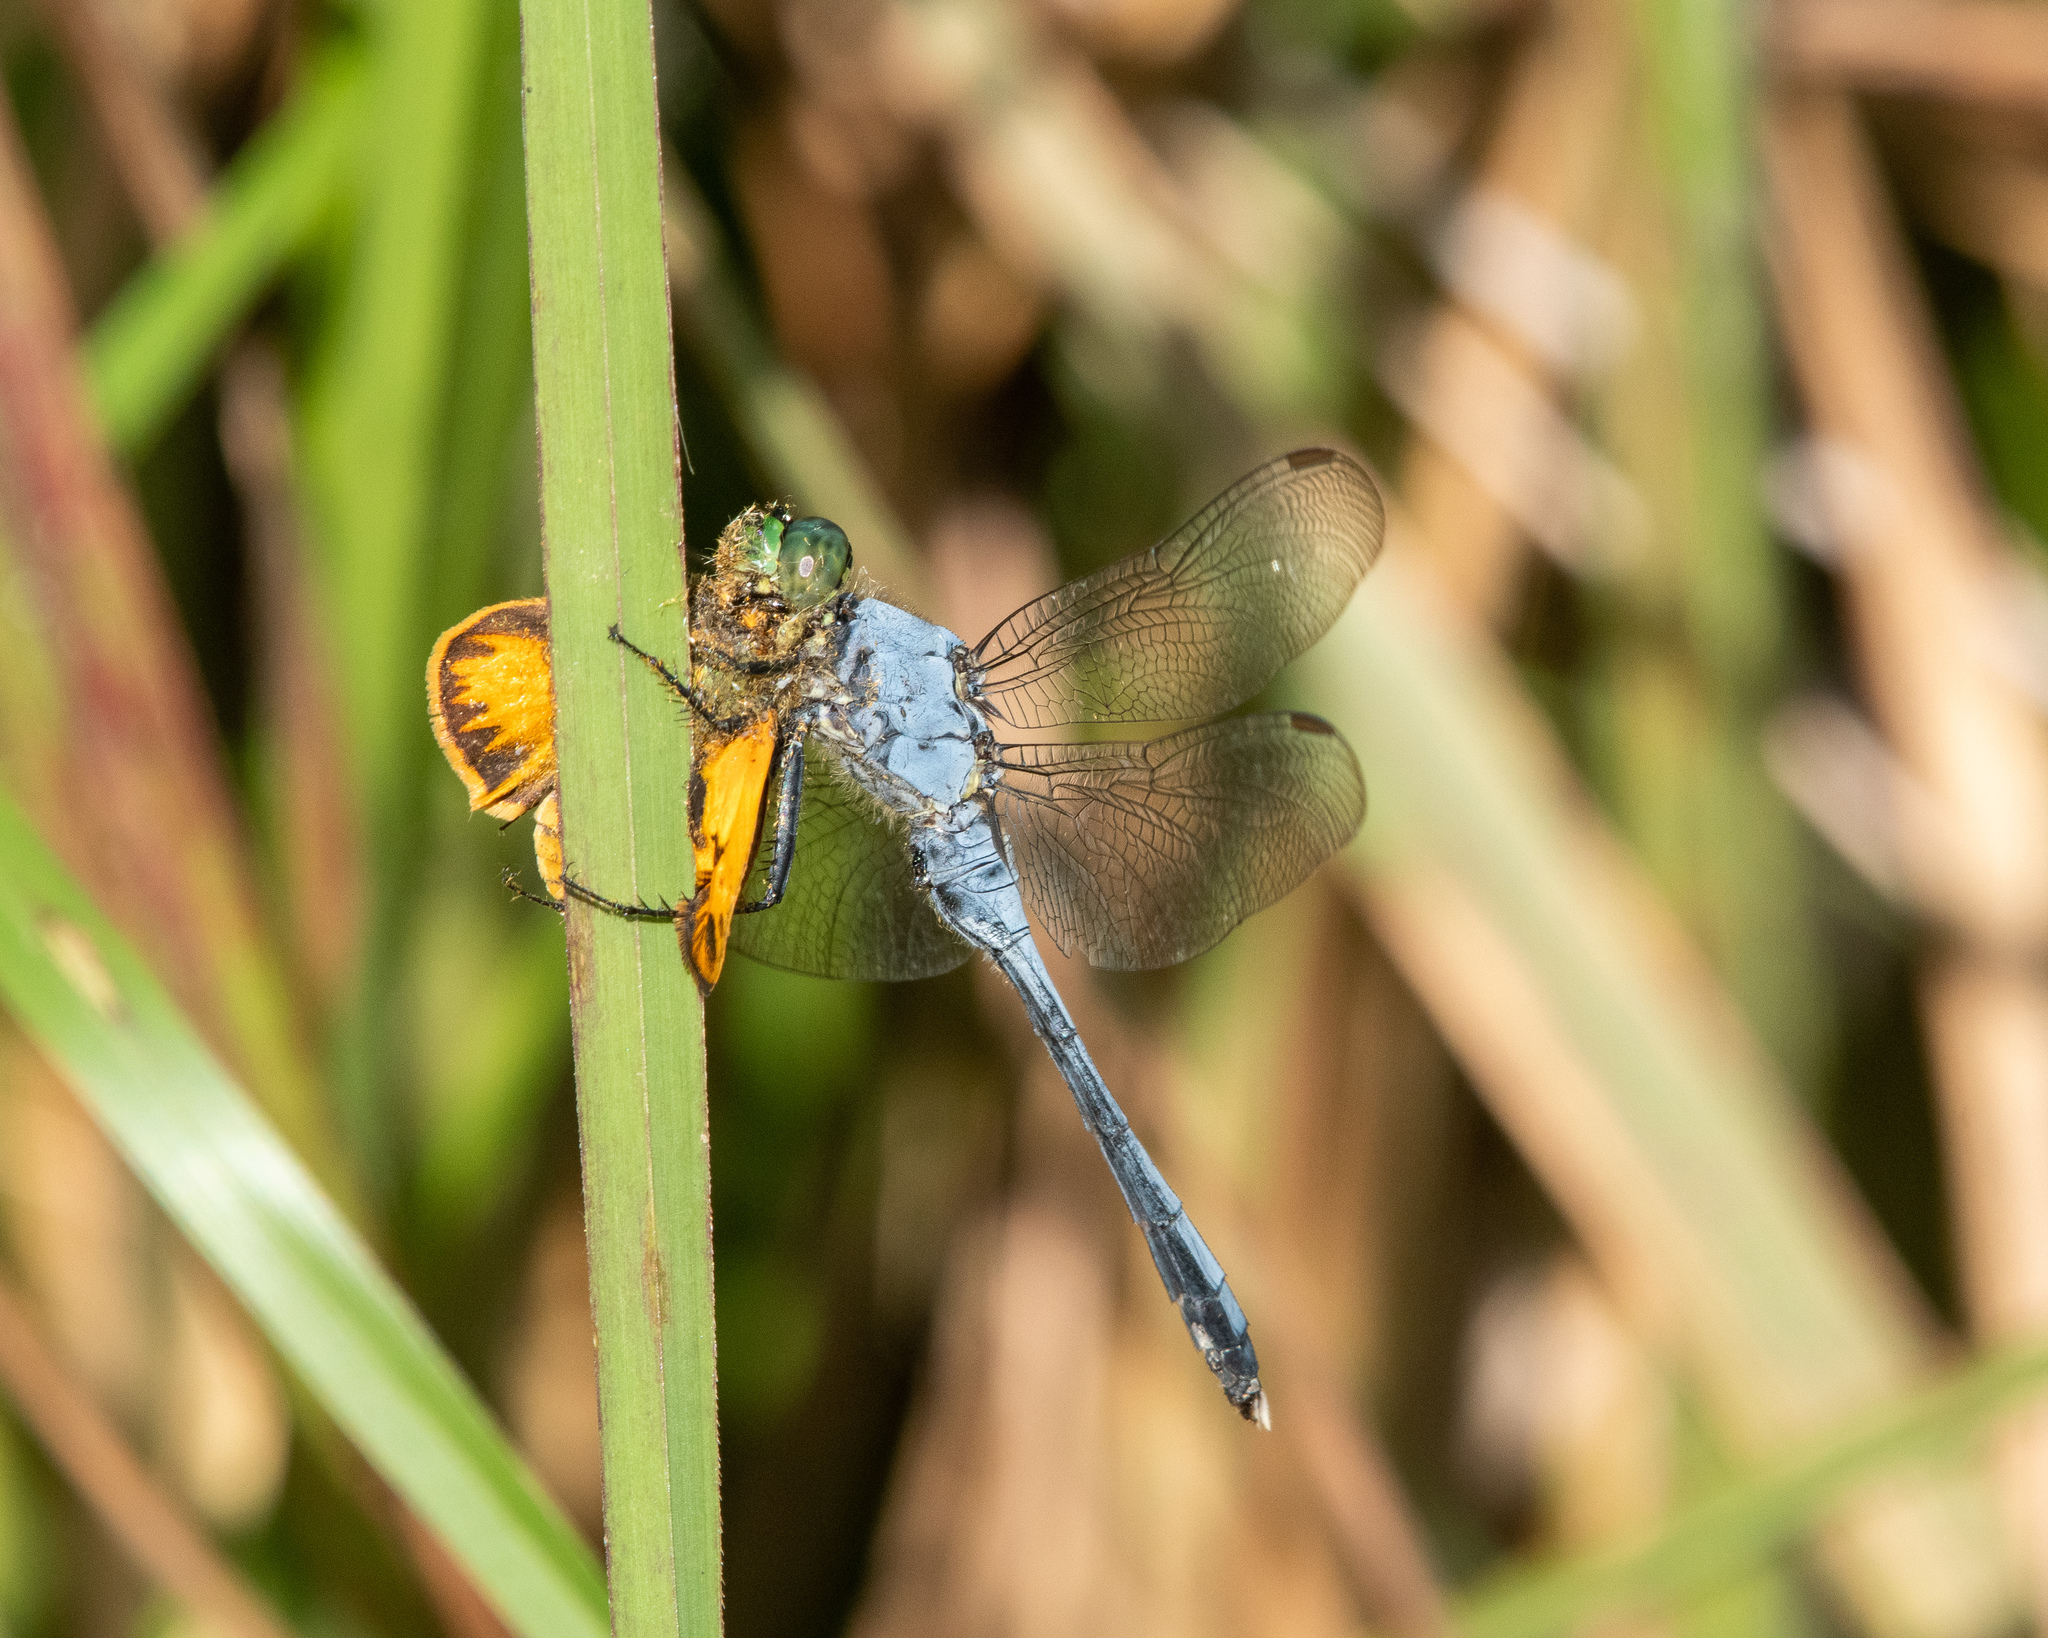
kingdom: Animalia
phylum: Arthropoda
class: Insecta
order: Odonata
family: Libellulidae
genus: Erythemis
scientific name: Erythemis simplicicollis
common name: Eastern pondhawk
